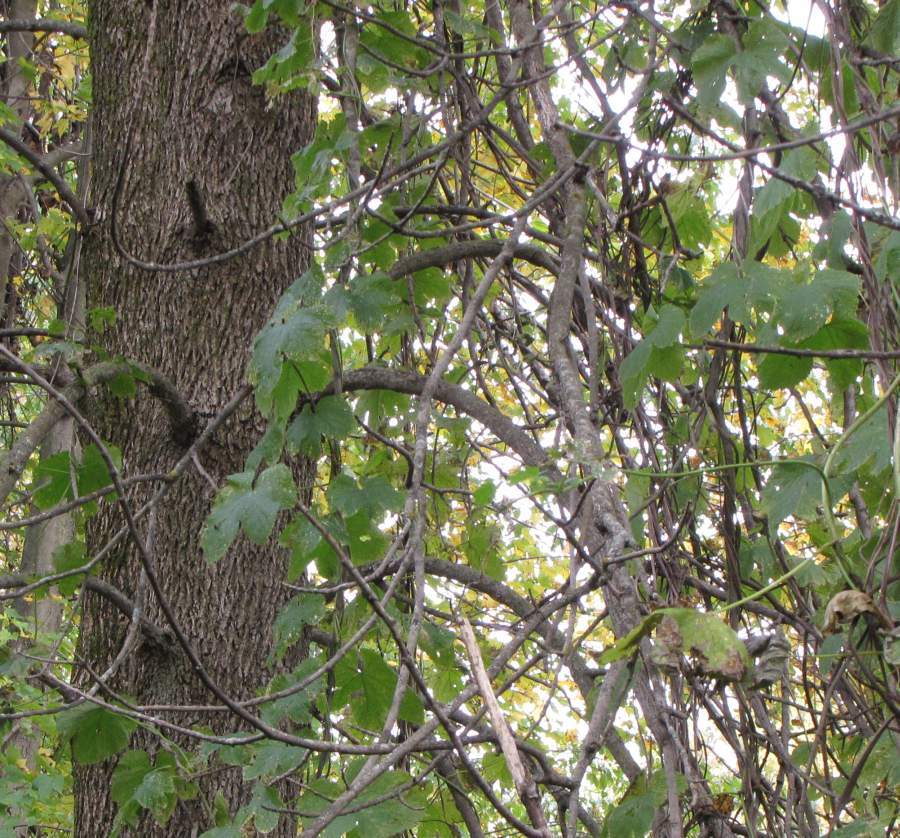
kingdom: Plantae
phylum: Tracheophyta
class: Magnoliopsida
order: Rosales
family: Cannabaceae
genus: Humulus
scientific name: Humulus lupulus
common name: Hop
